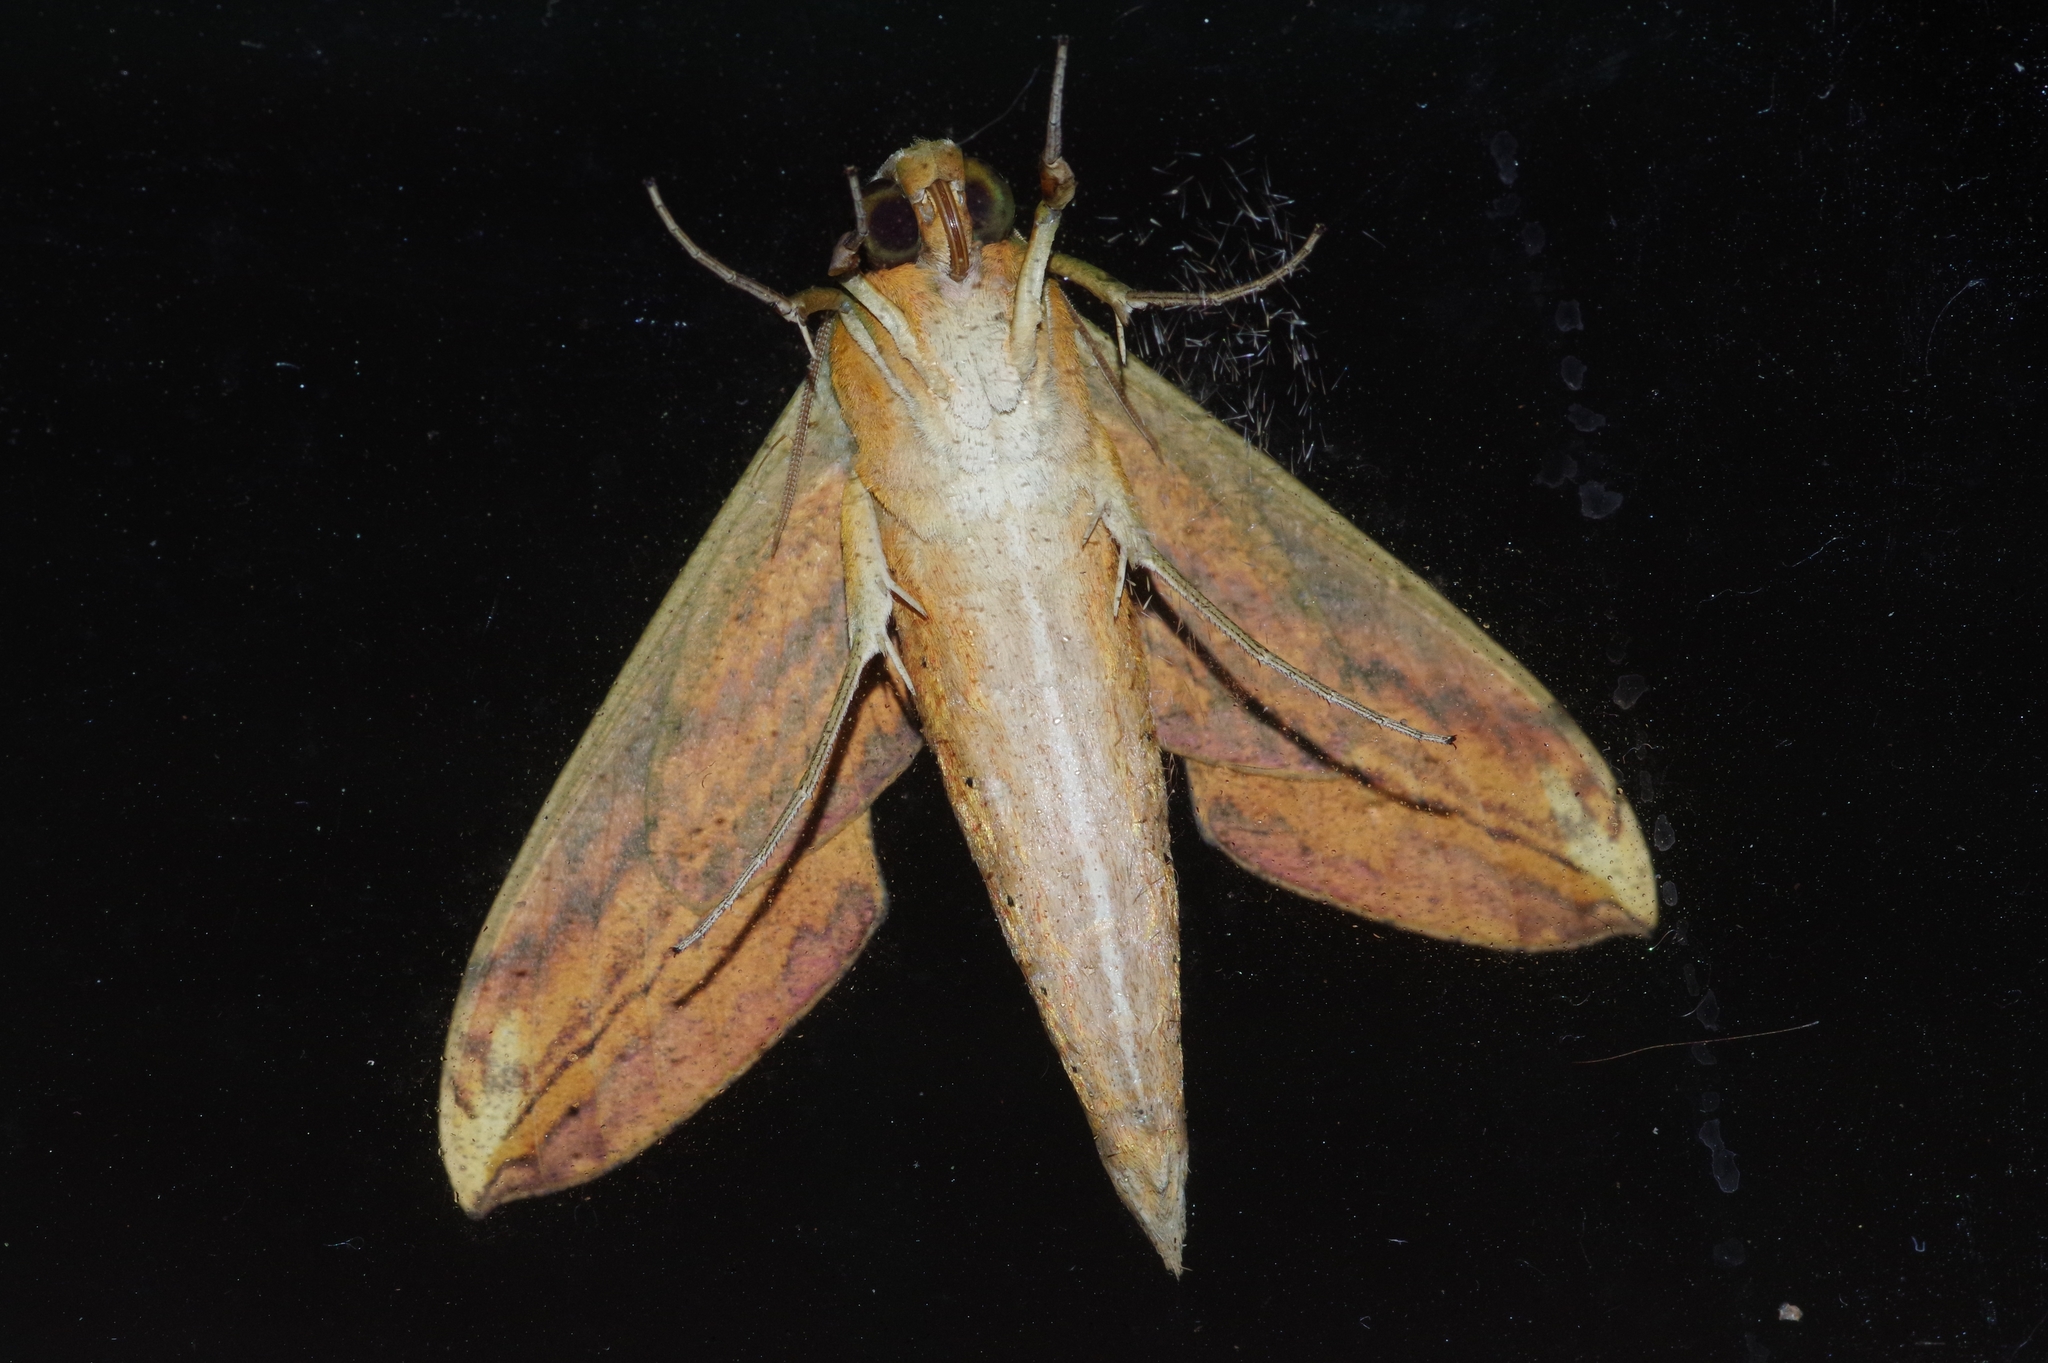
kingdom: Animalia
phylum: Arthropoda
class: Insecta
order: Lepidoptera
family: Sphingidae
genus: Theretra
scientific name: Theretra nessus
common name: Yam hawk moth
